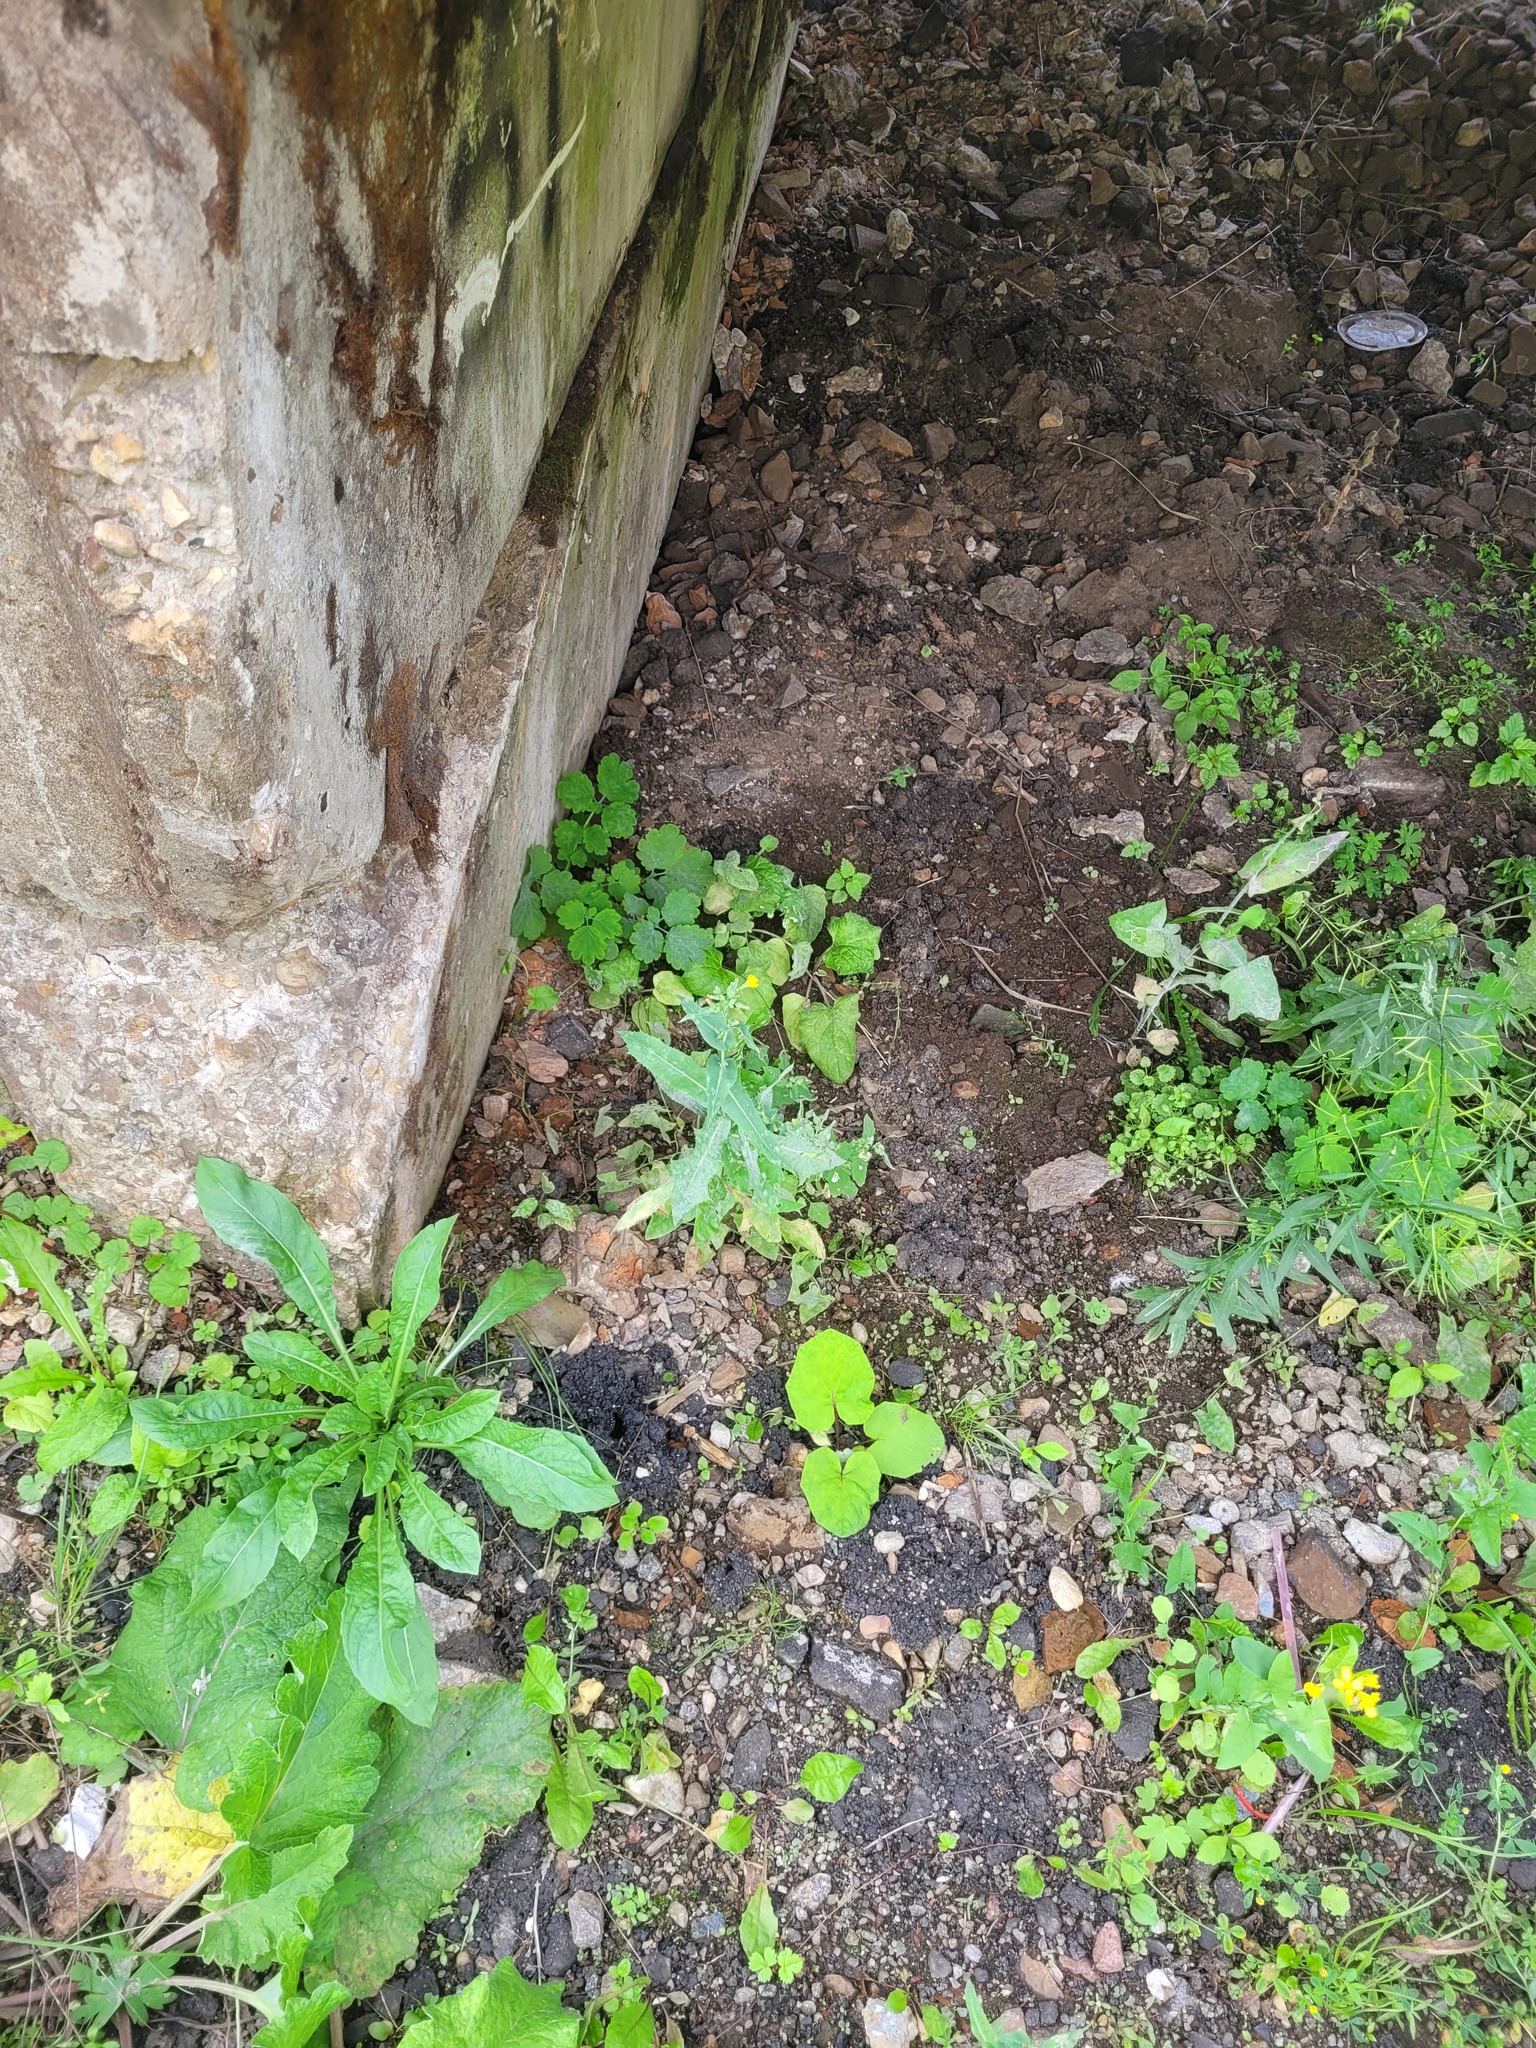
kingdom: Plantae
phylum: Tracheophyta
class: Magnoliopsida
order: Asterales
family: Asteraceae
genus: Lactuca
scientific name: Lactuca serriola
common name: Prickly lettuce
